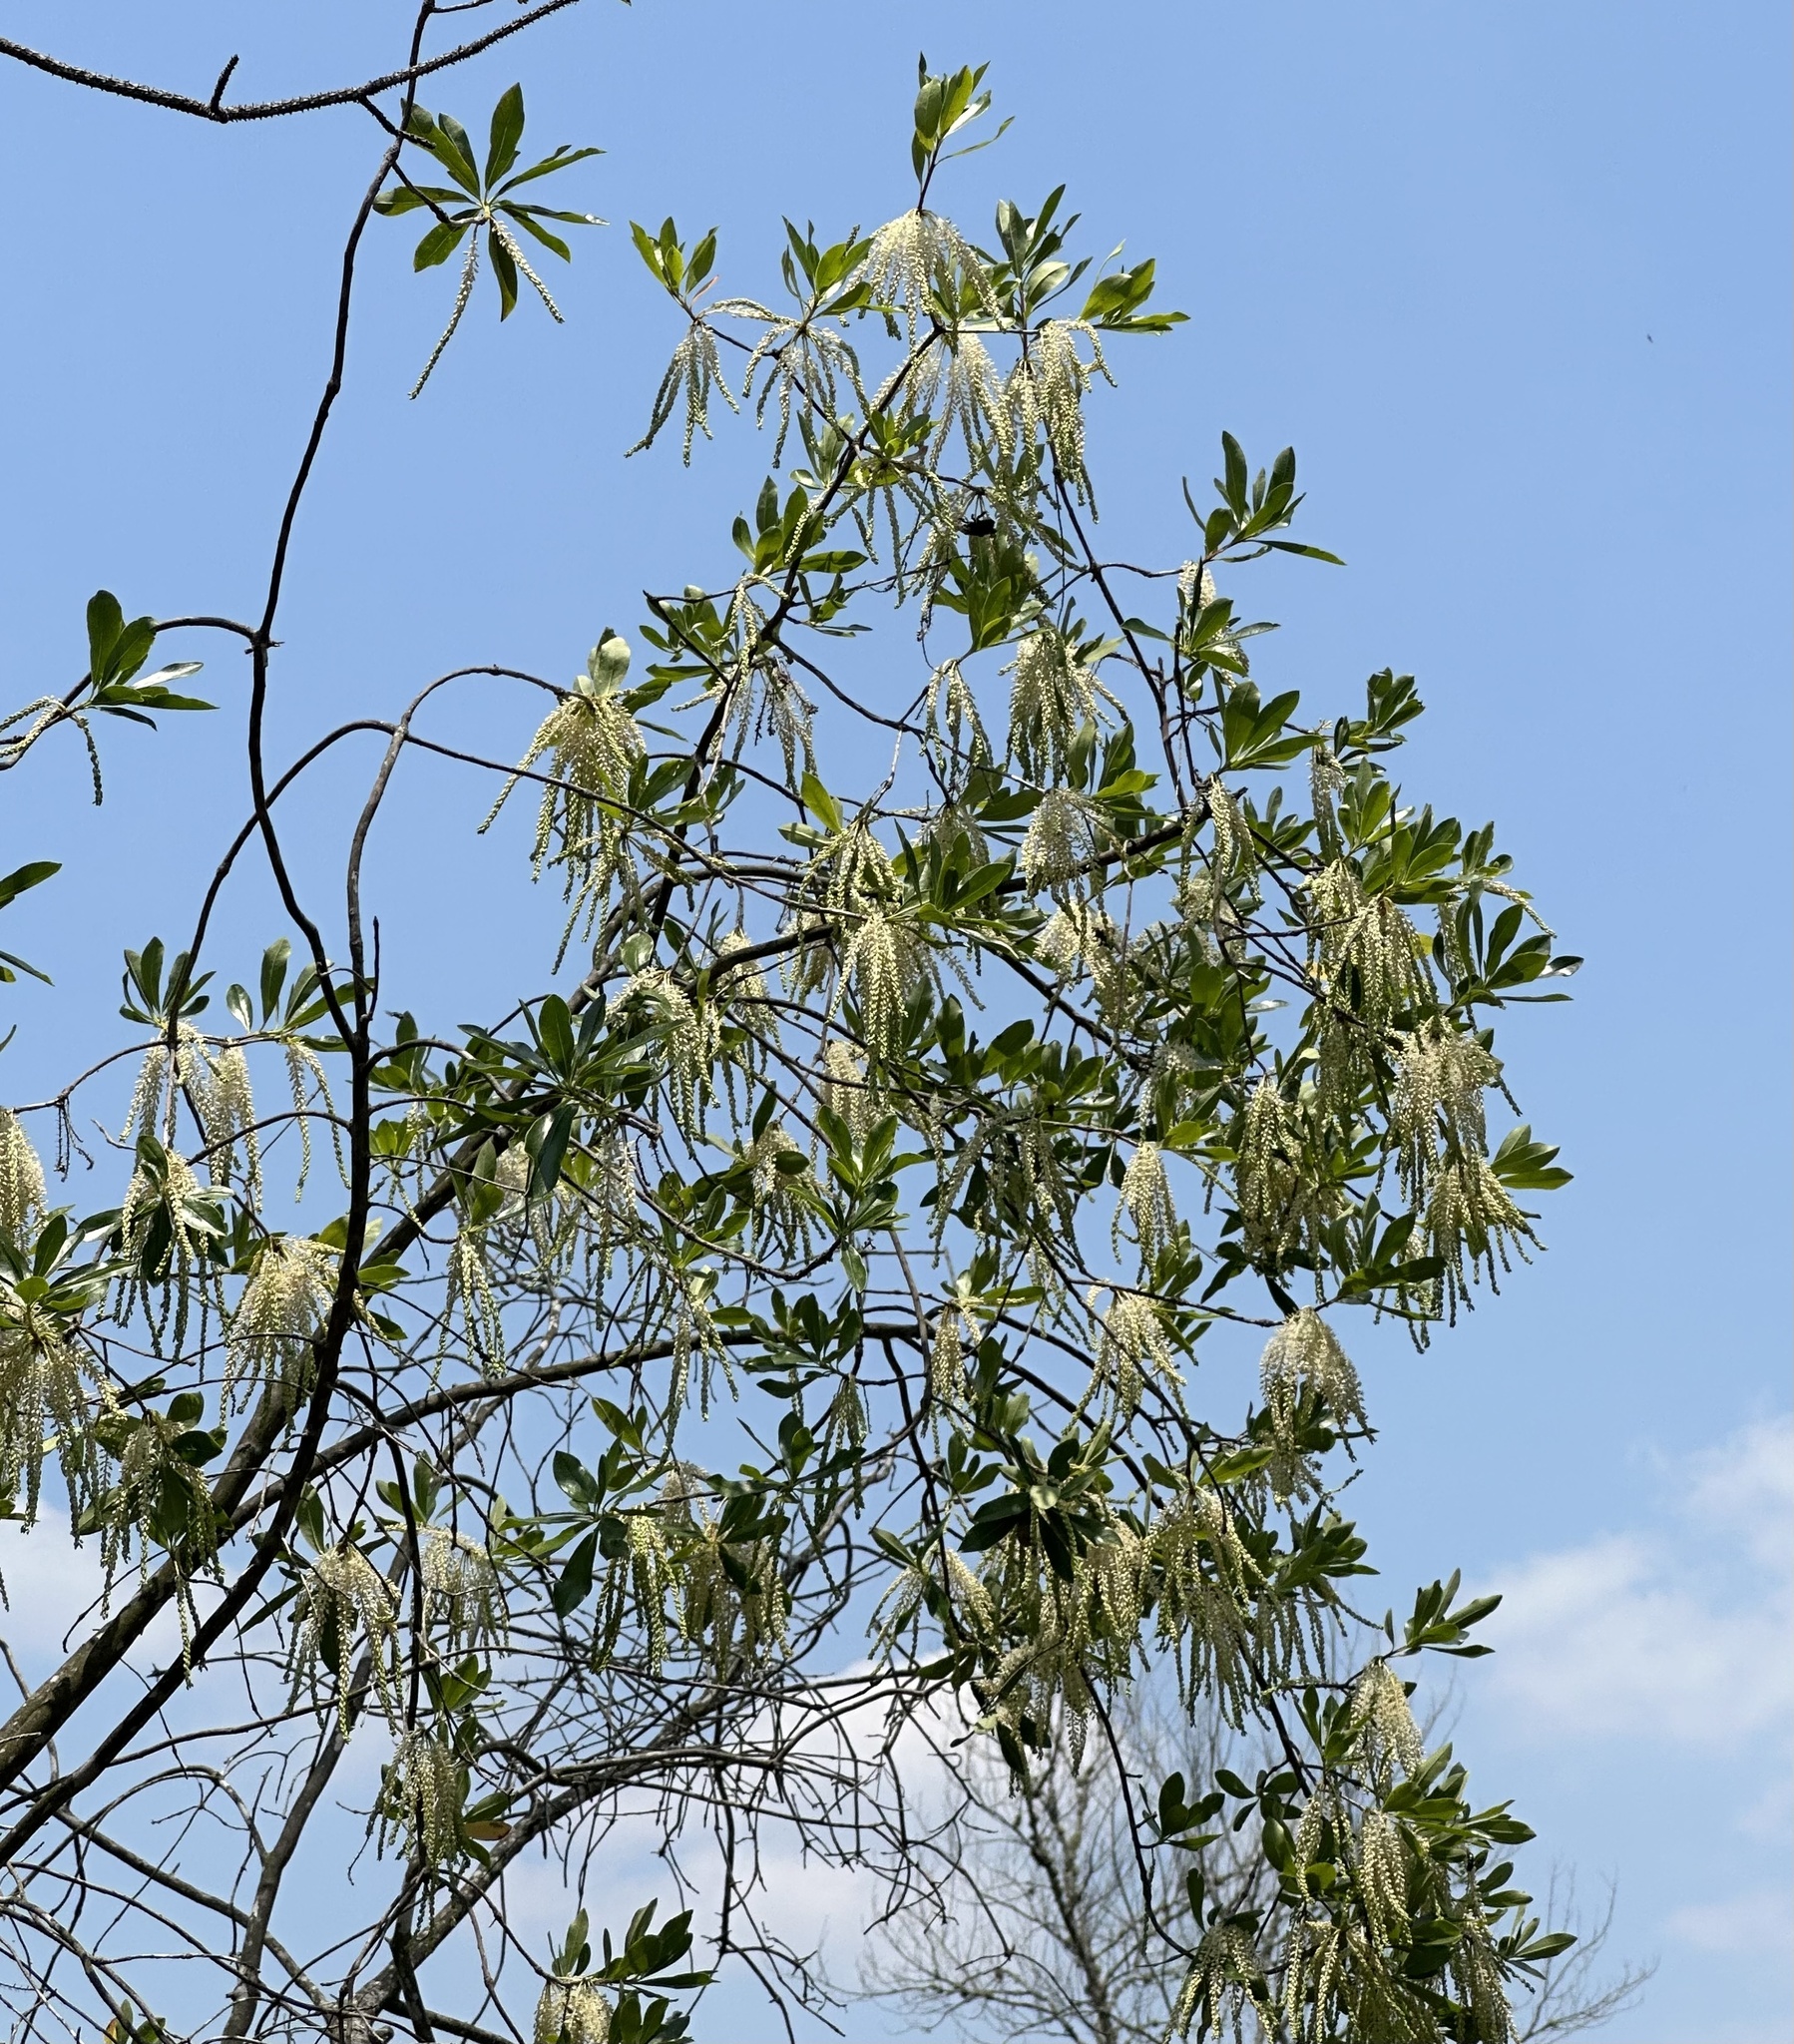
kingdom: Plantae
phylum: Tracheophyta
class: Magnoliopsida
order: Ericales
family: Cyrillaceae
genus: Cyrilla
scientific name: Cyrilla racemiflora
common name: Black titi
